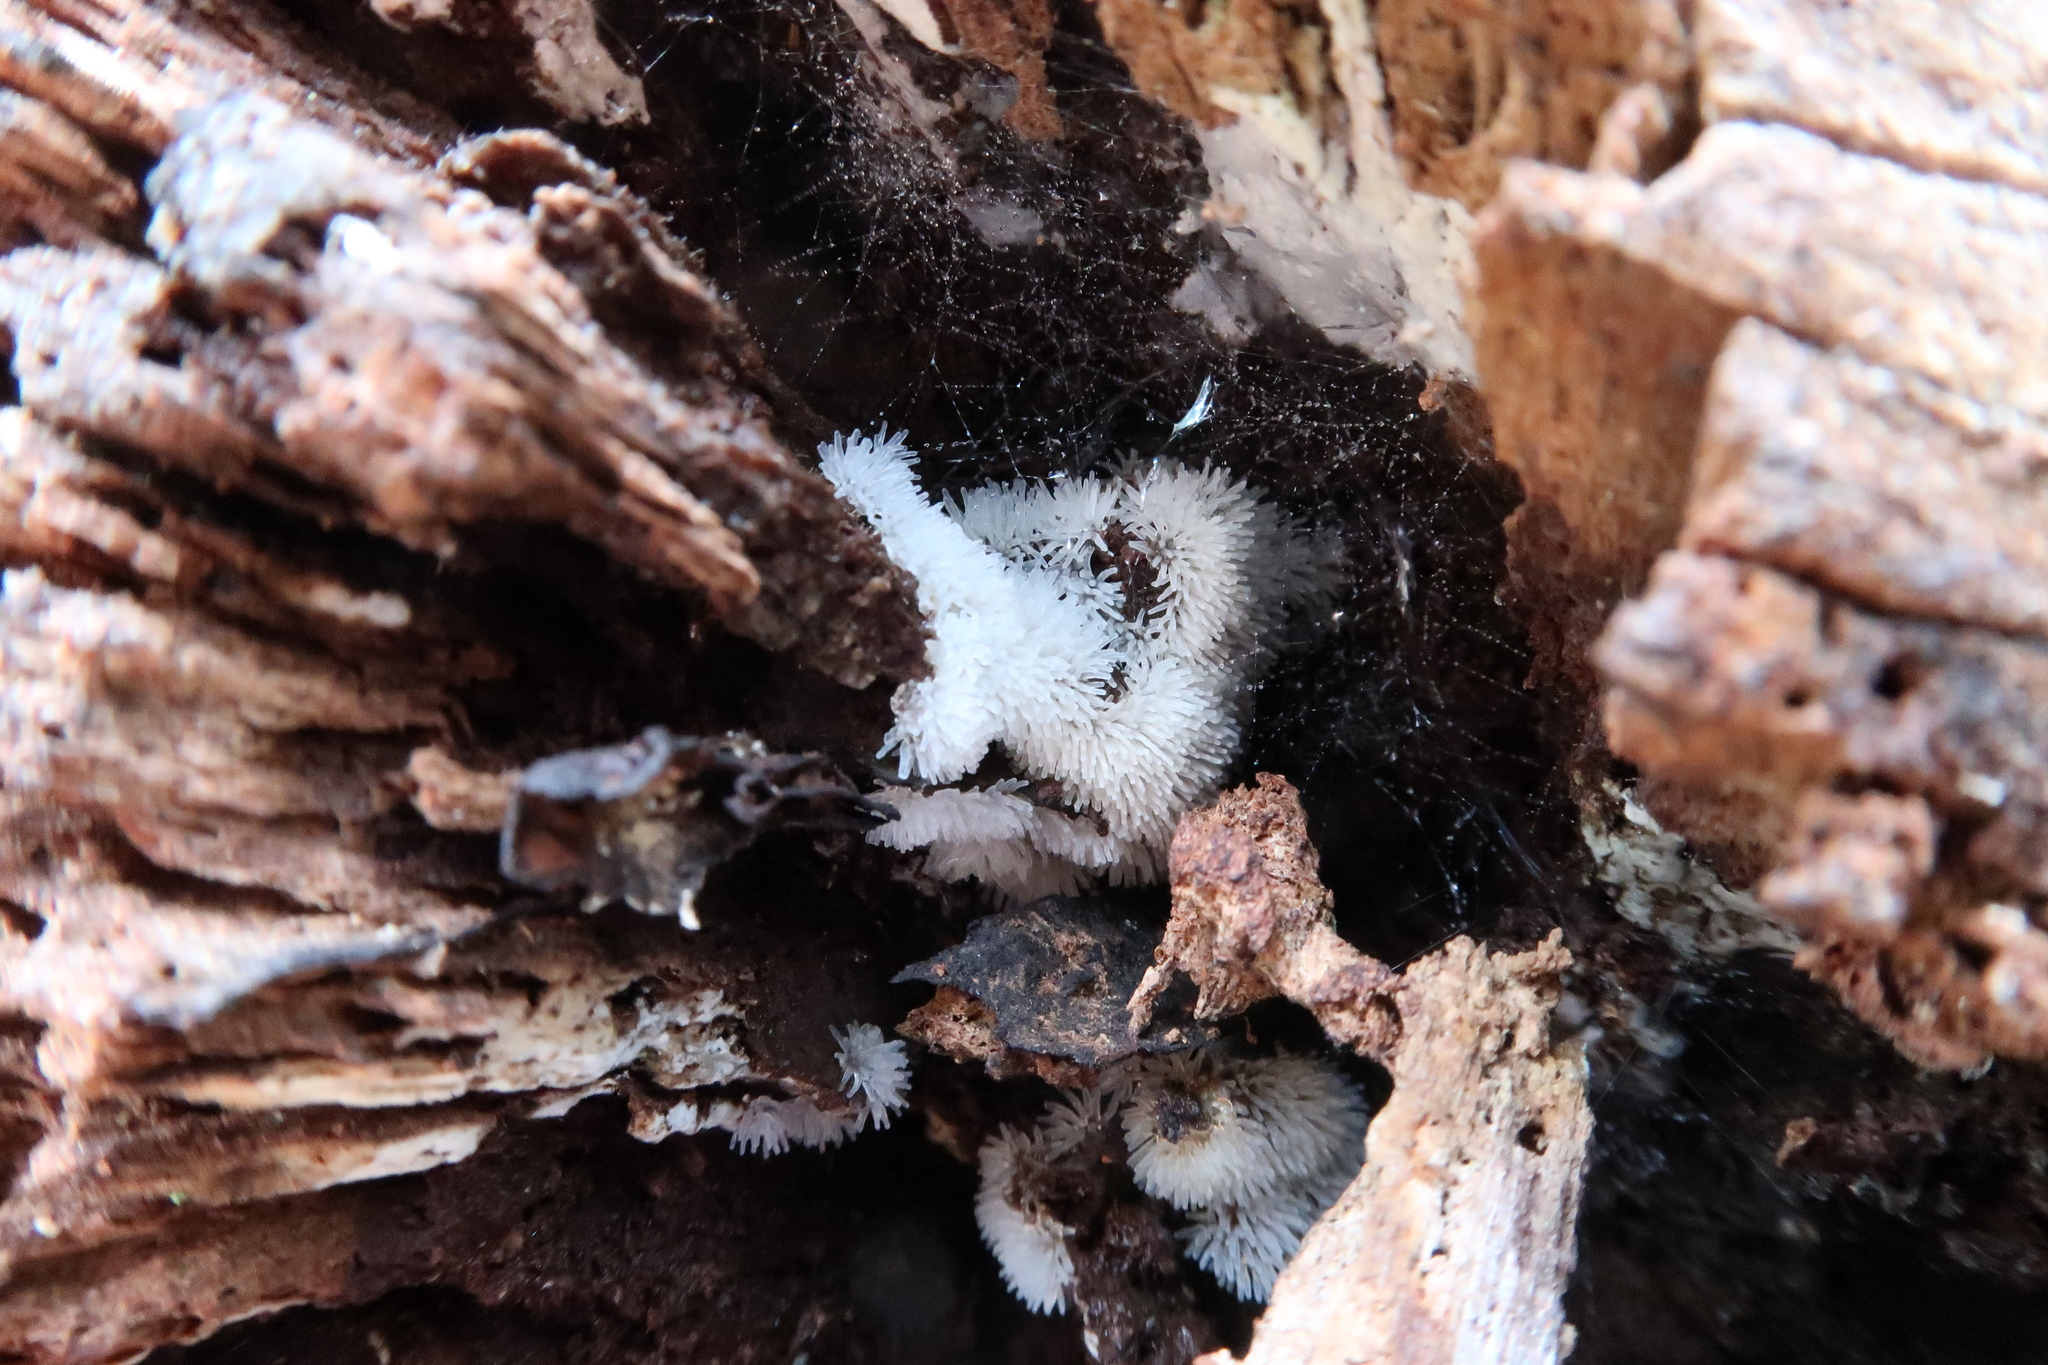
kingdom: Protozoa
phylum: Mycetozoa
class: Protosteliomycetes
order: Ceratiomyxales
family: Ceratiomyxaceae
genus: Ceratiomyxa
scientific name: Ceratiomyxa fruticulosa
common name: Honeycomb coral slime mold
